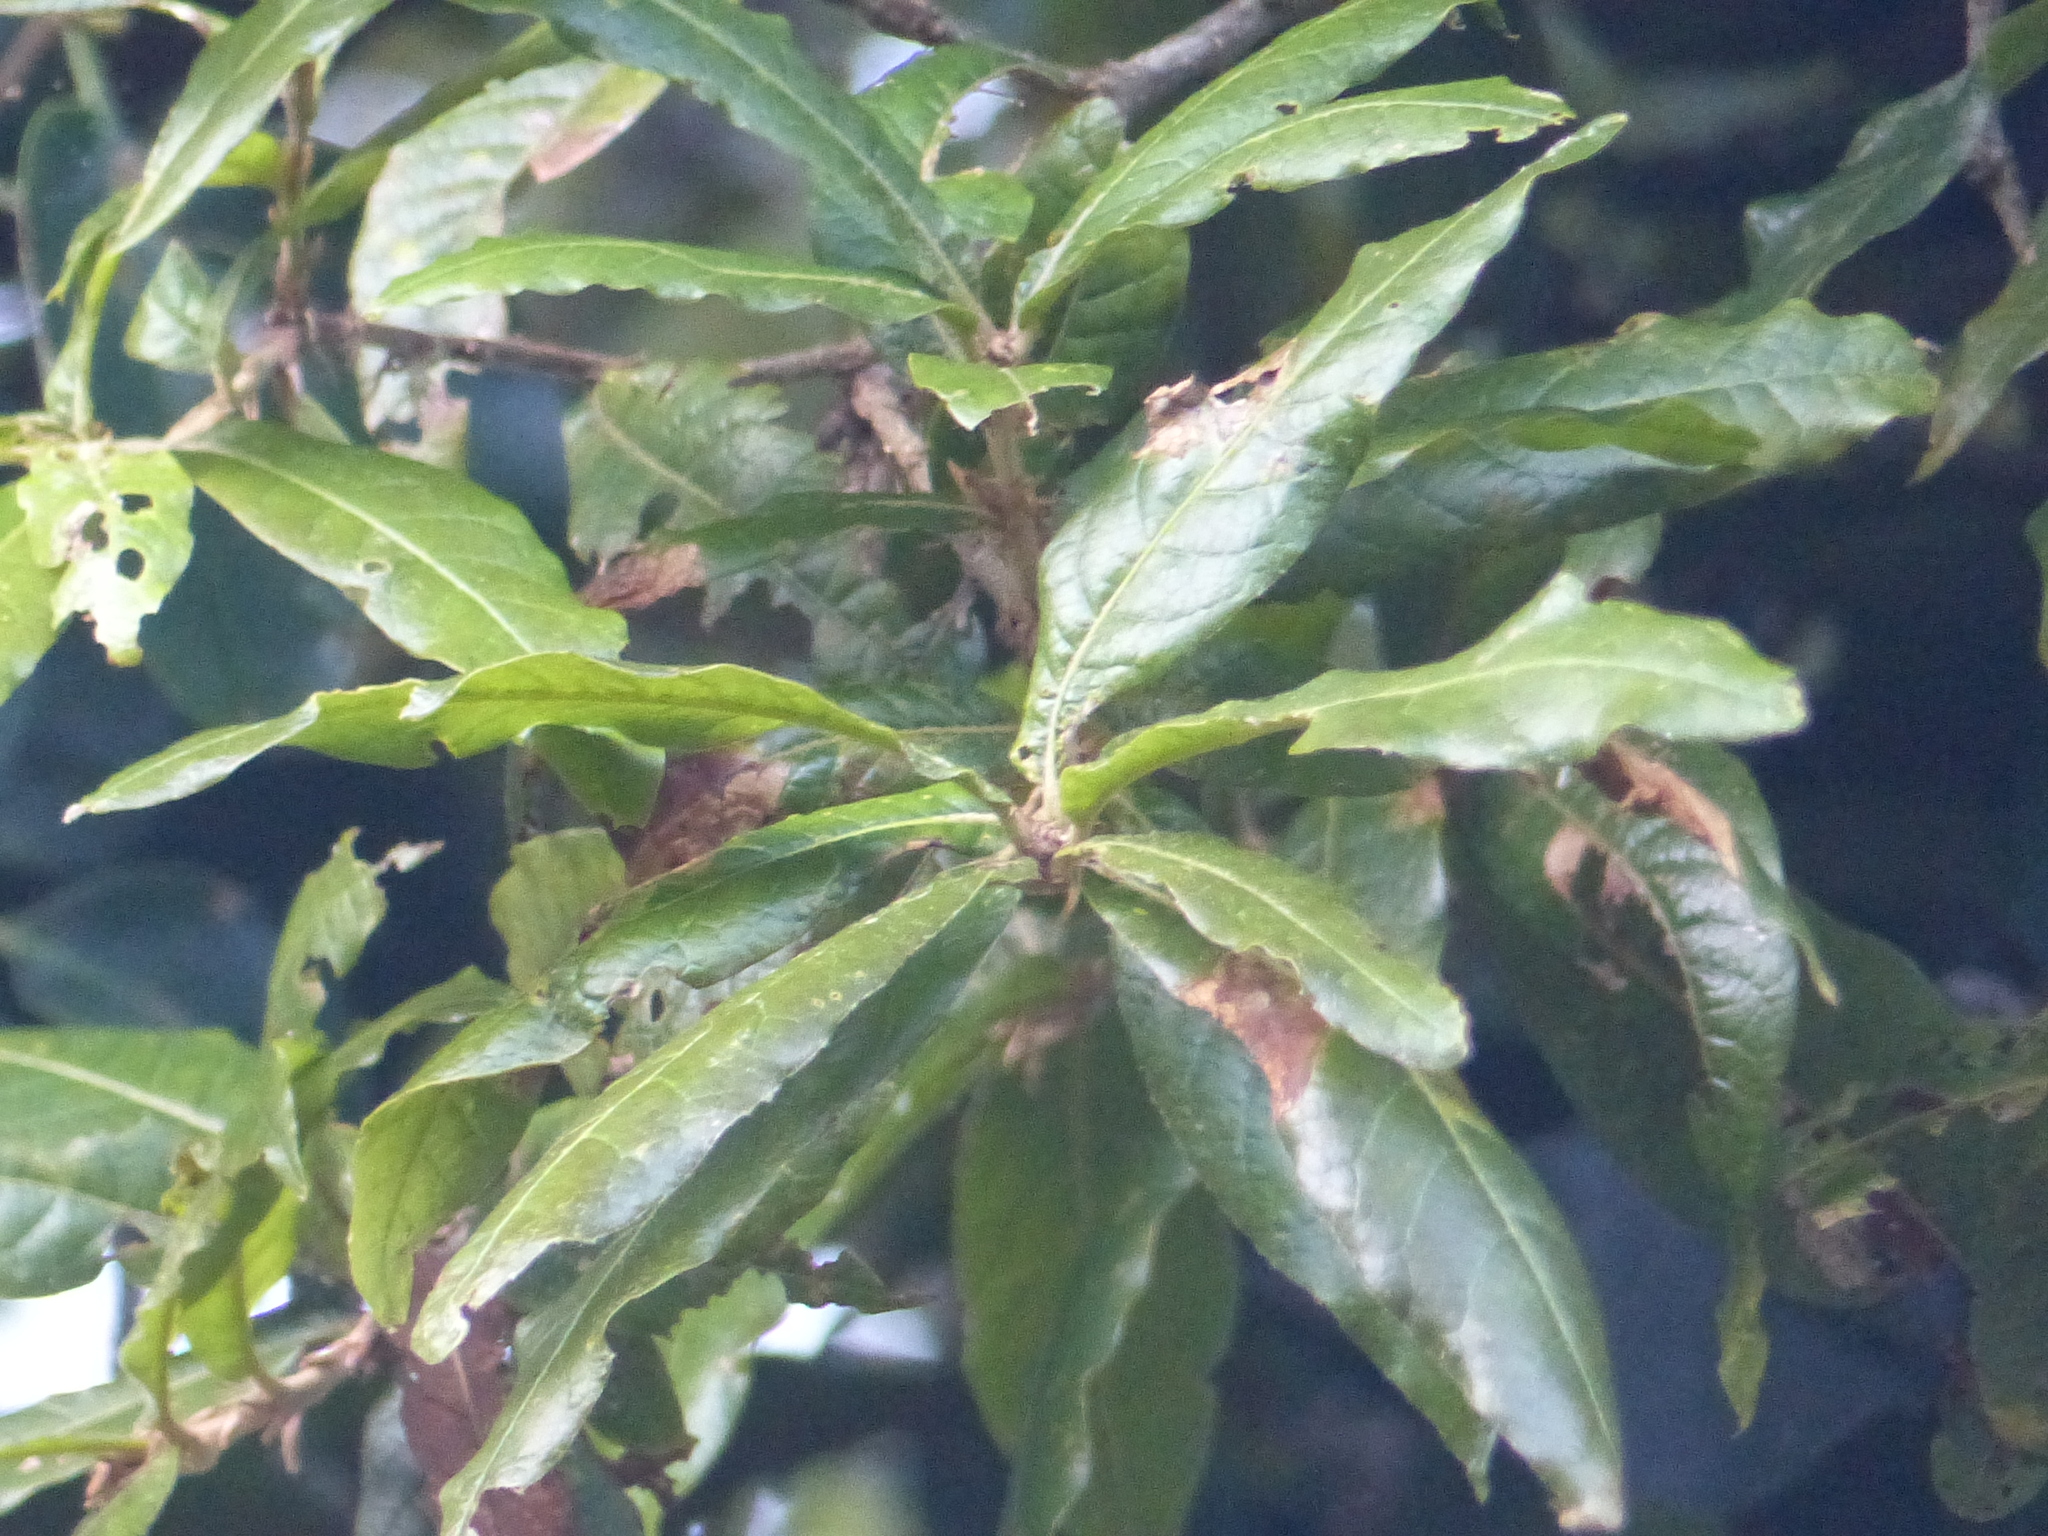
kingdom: Plantae
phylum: Tracheophyta
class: Magnoliopsida
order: Fagales
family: Fagaceae
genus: Quercus
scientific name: Quercus humboldtii
